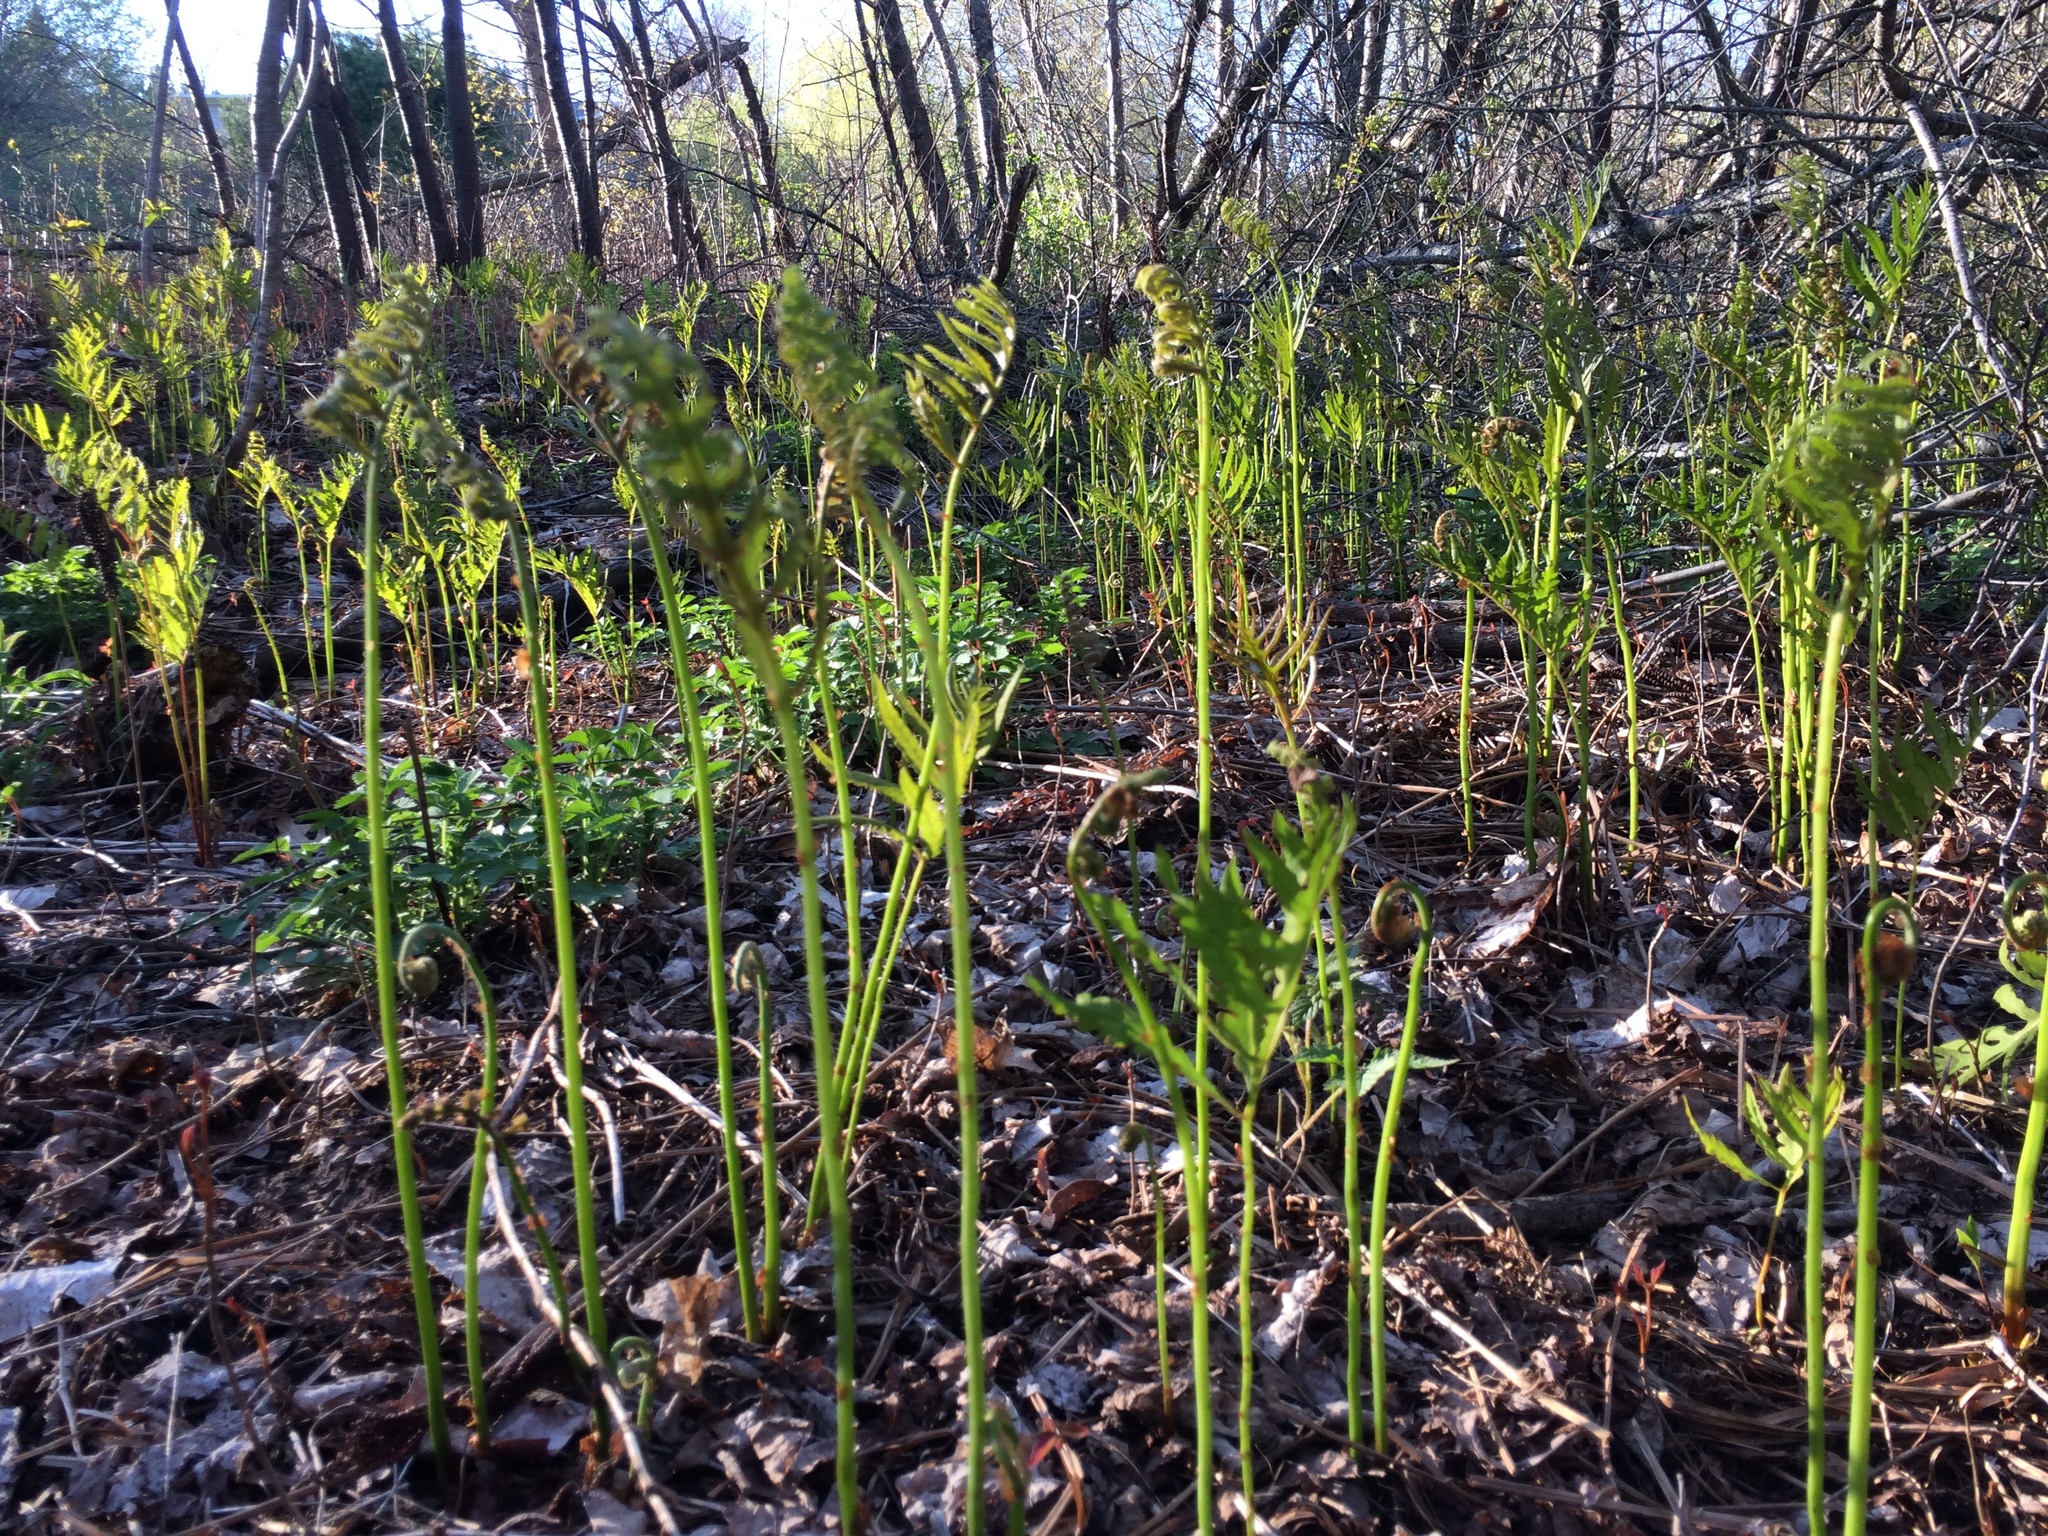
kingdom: Plantae
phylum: Tracheophyta
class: Polypodiopsida
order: Polypodiales
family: Onocleaceae
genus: Onoclea
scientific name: Onoclea sensibilis
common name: Sensitive fern
